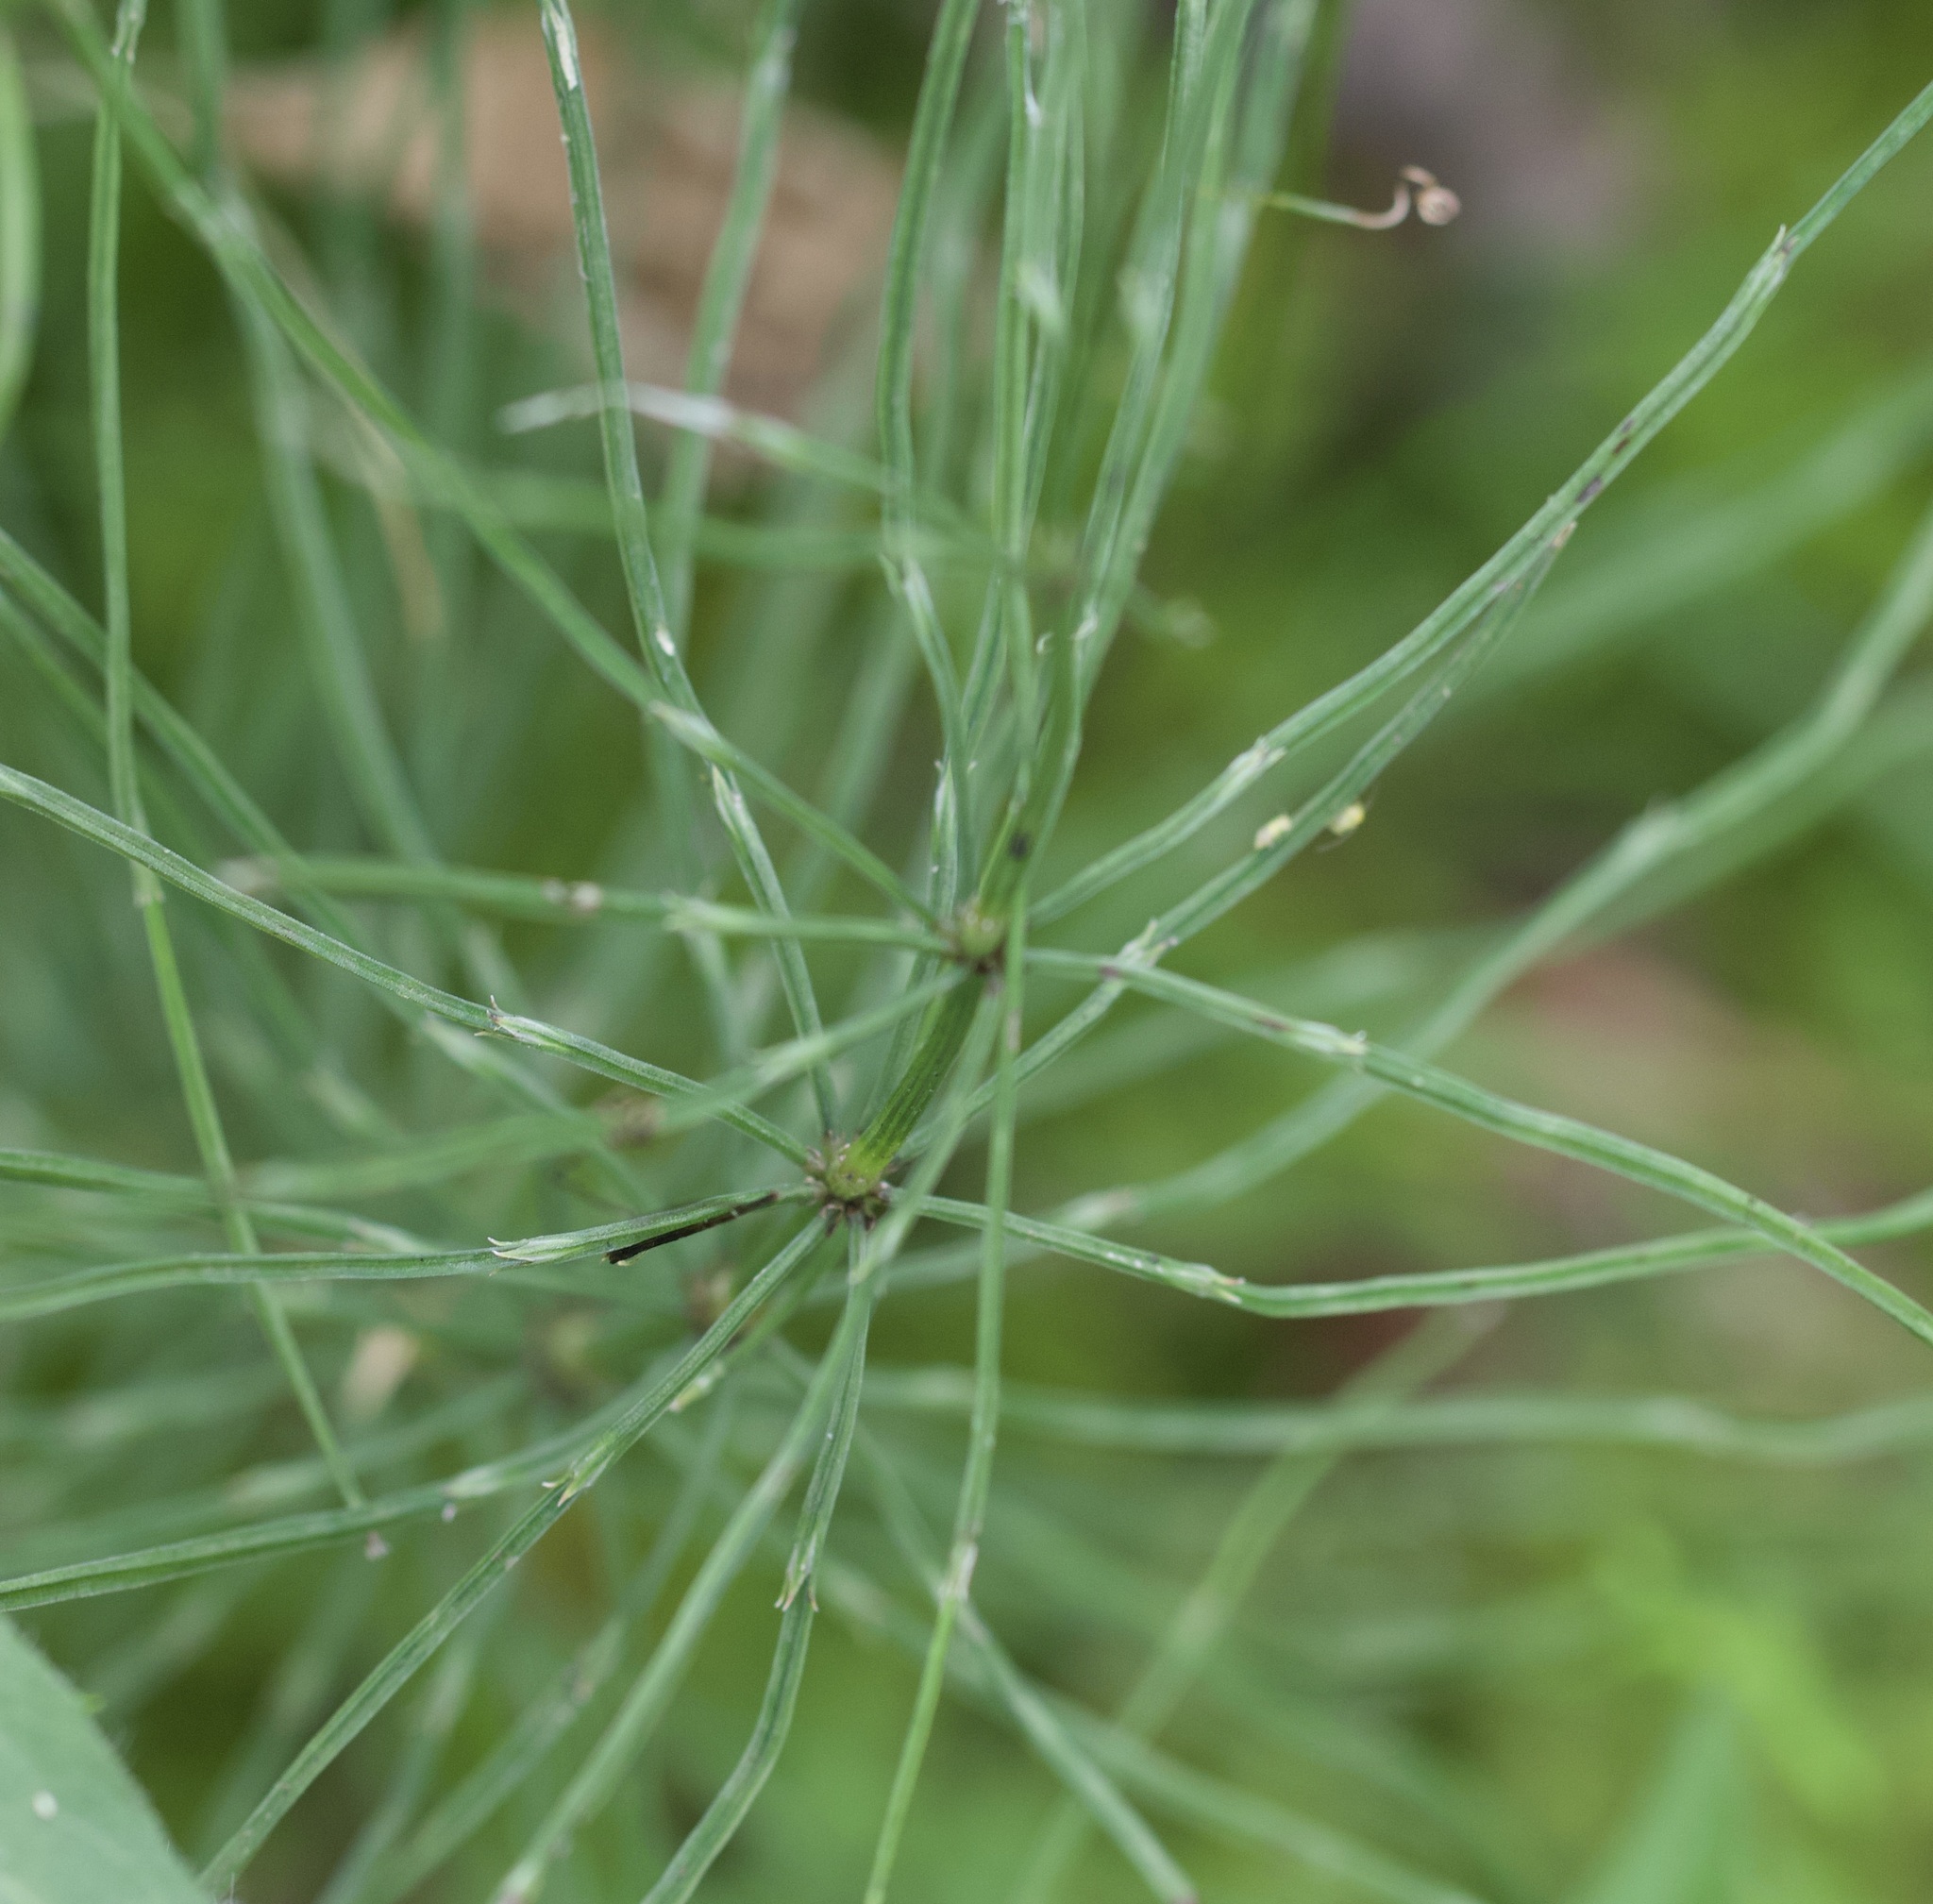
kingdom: Plantae
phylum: Tracheophyta
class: Polypodiopsida
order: Equisetales
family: Equisetaceae
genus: Equisetum
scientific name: Equisetum arvense
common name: Field horsetail
